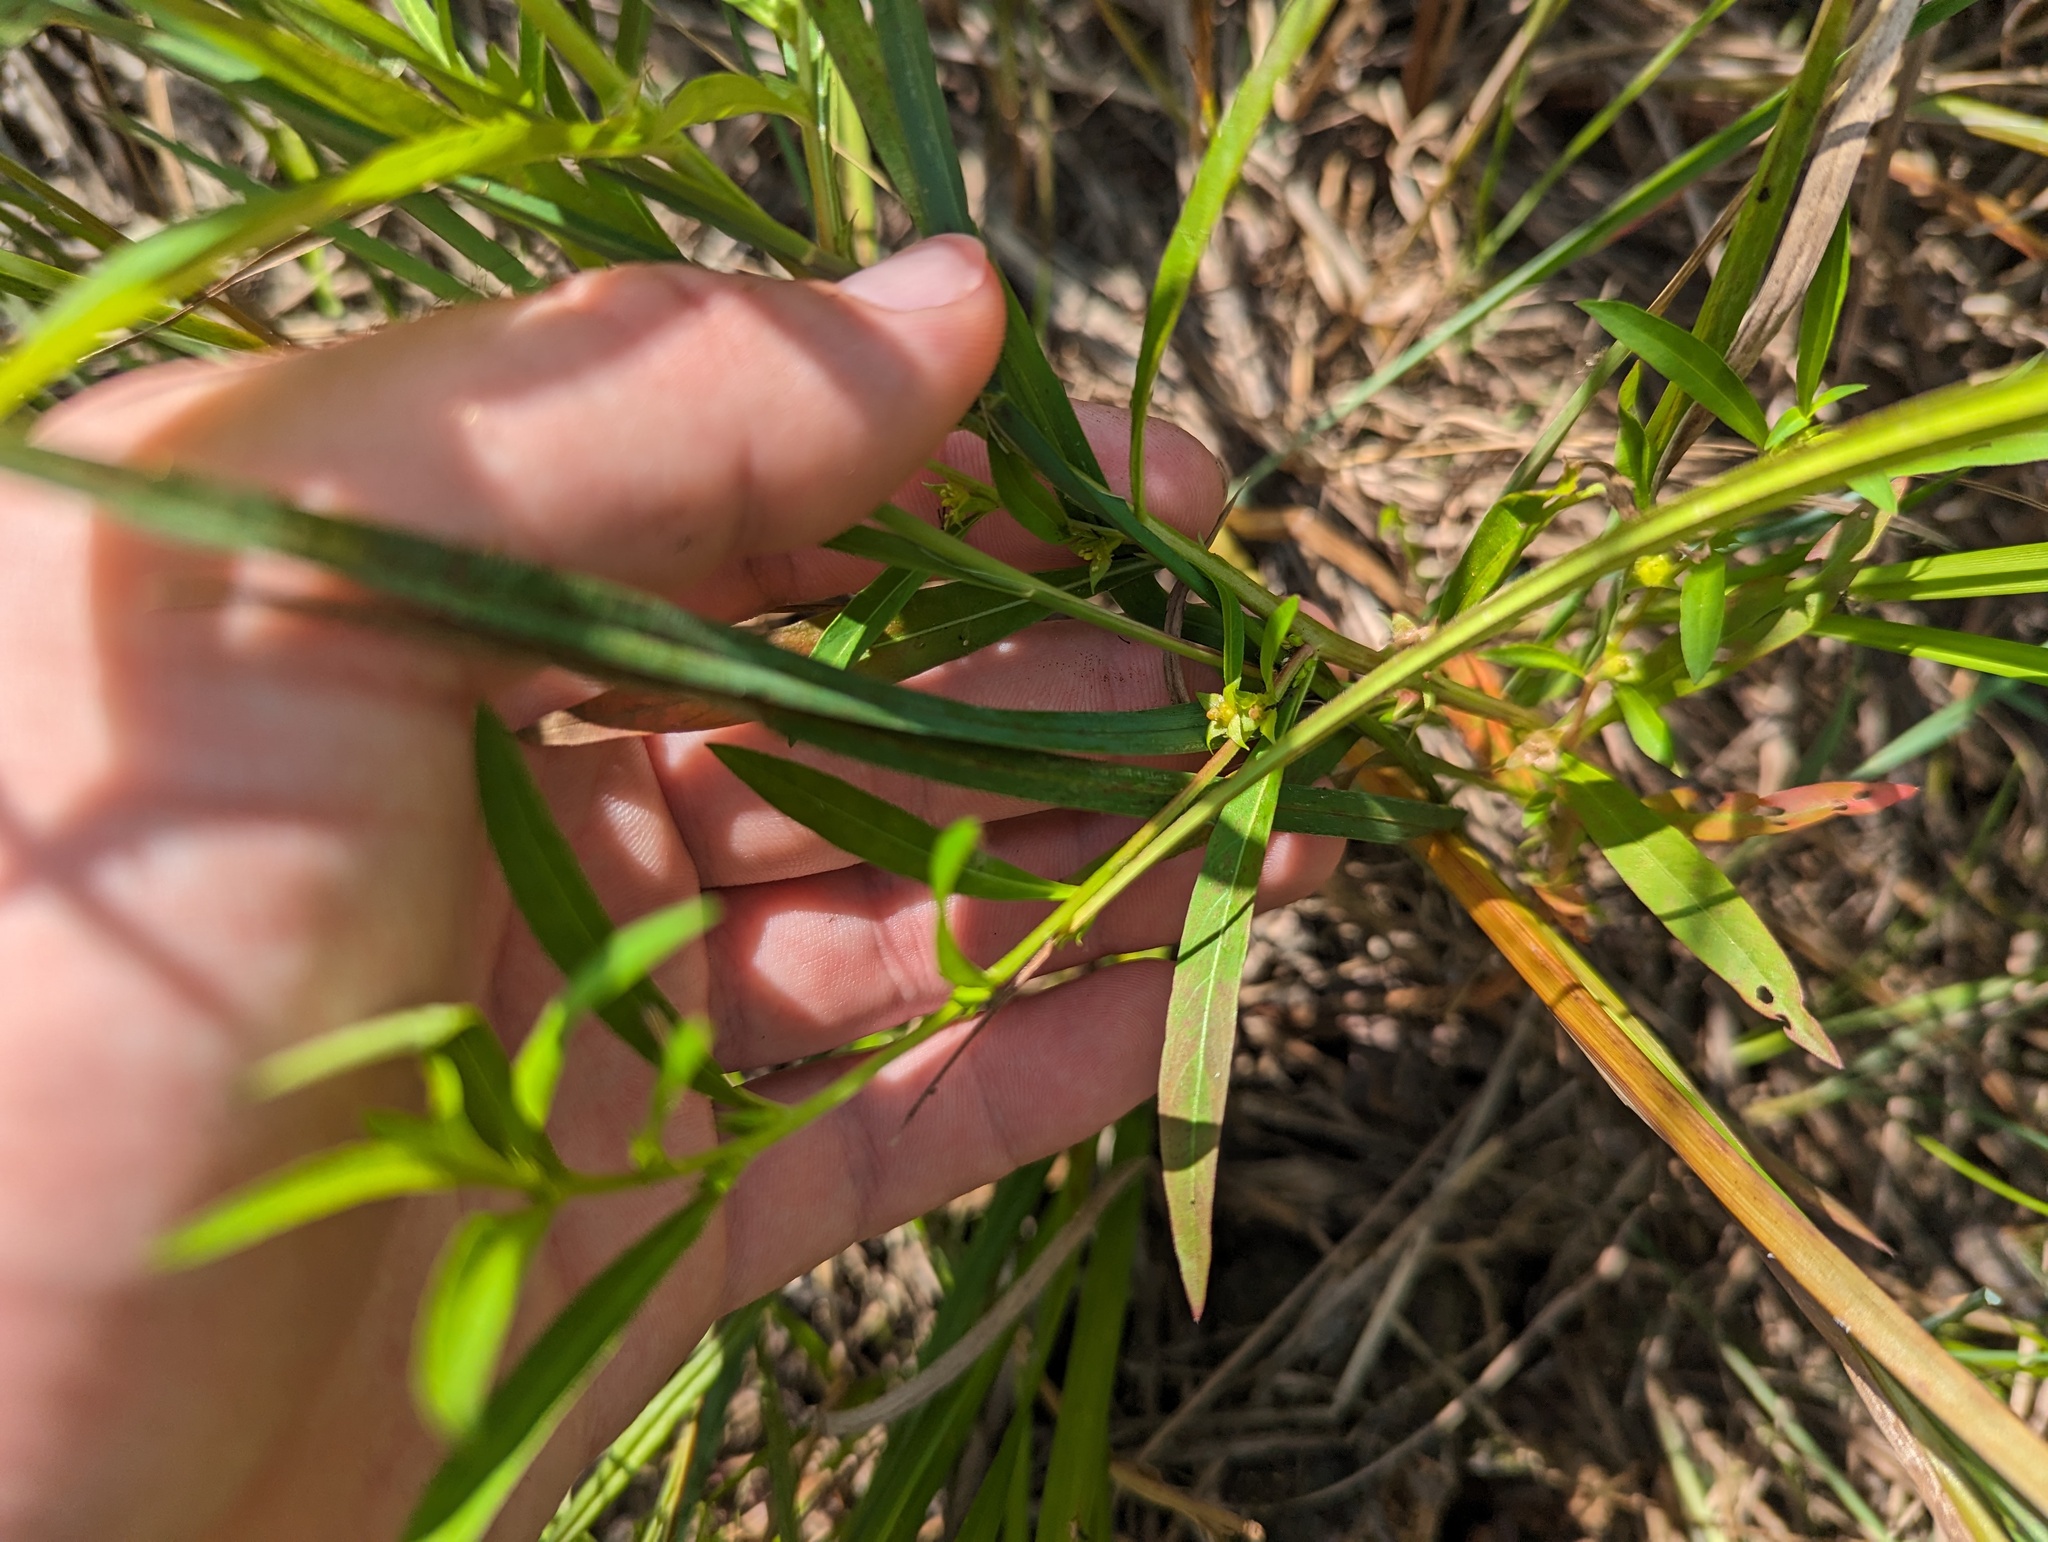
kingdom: Plantae
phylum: Tracheophyta
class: Magnoliopsida
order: Myrtales
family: Onagraceae
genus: Ludwigia
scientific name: Ludwigia polycarpa
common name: False loosestrife
